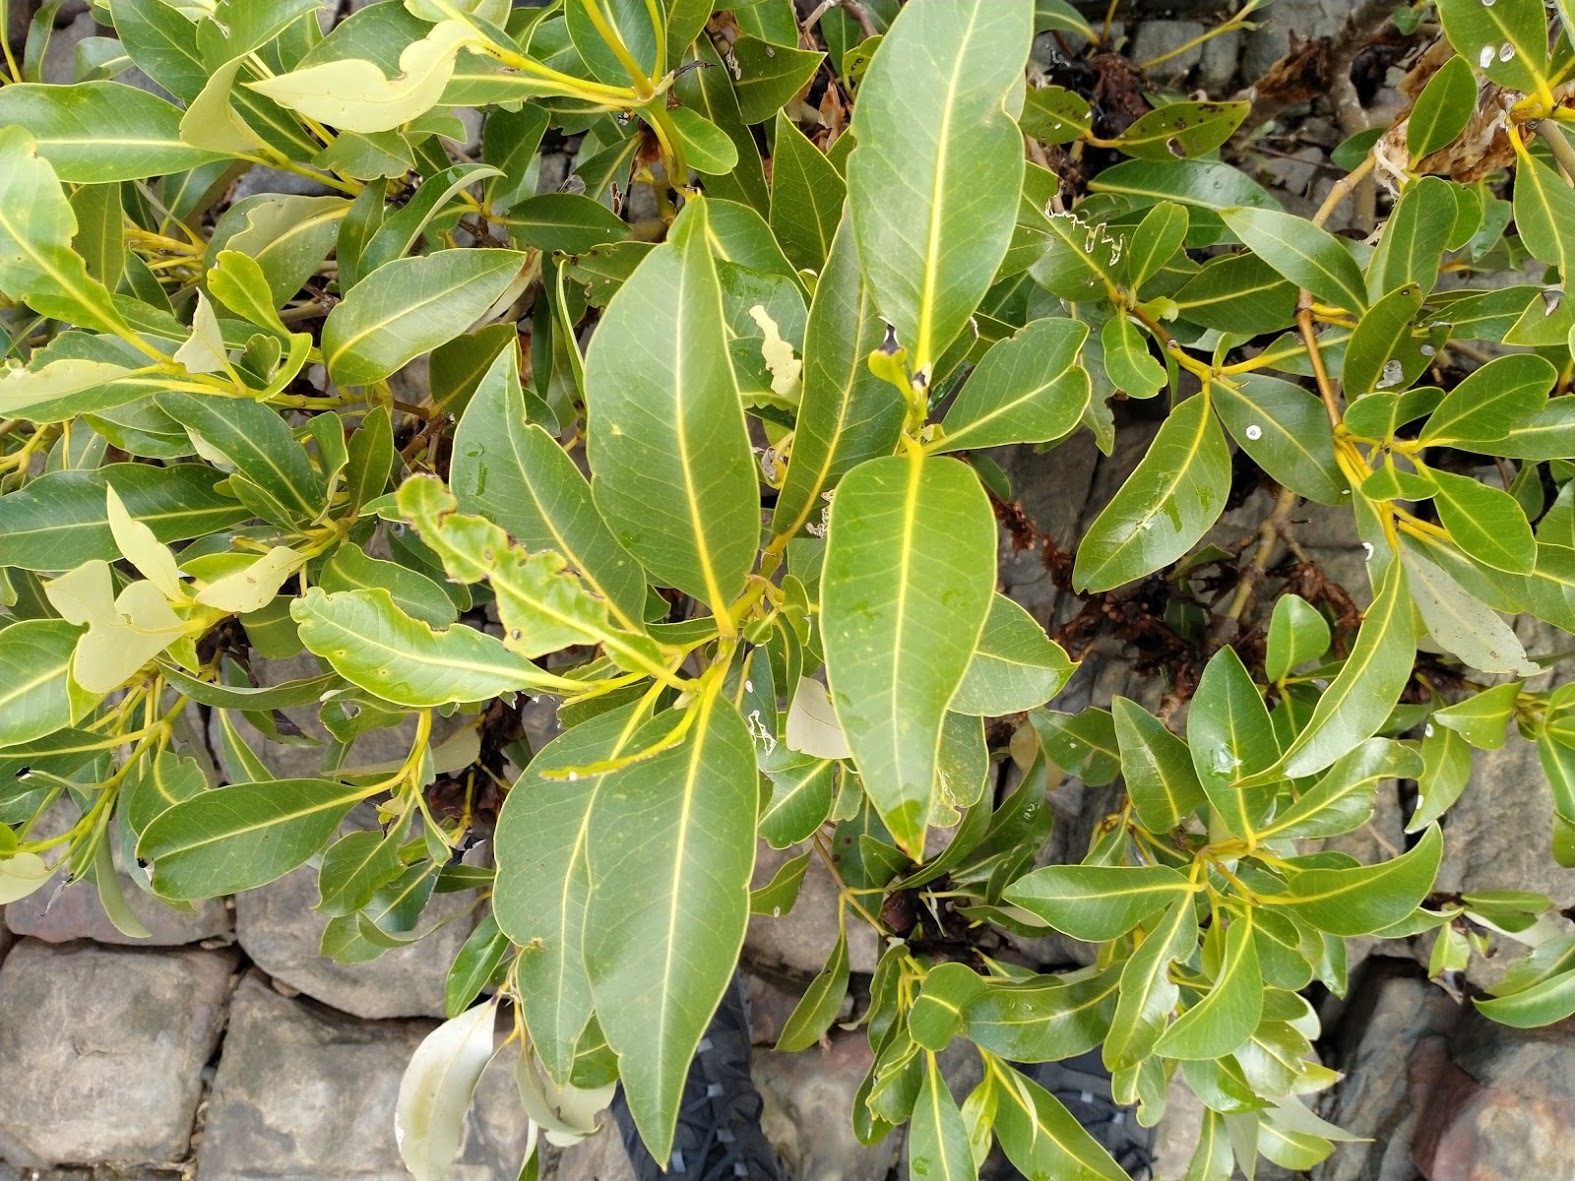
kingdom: Plantae
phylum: Tracheophyta
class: Magnoliopsida
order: Lamiales
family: Acanthaceae
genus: Avicennia
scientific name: Avicennia marina
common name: Gray mangrove
